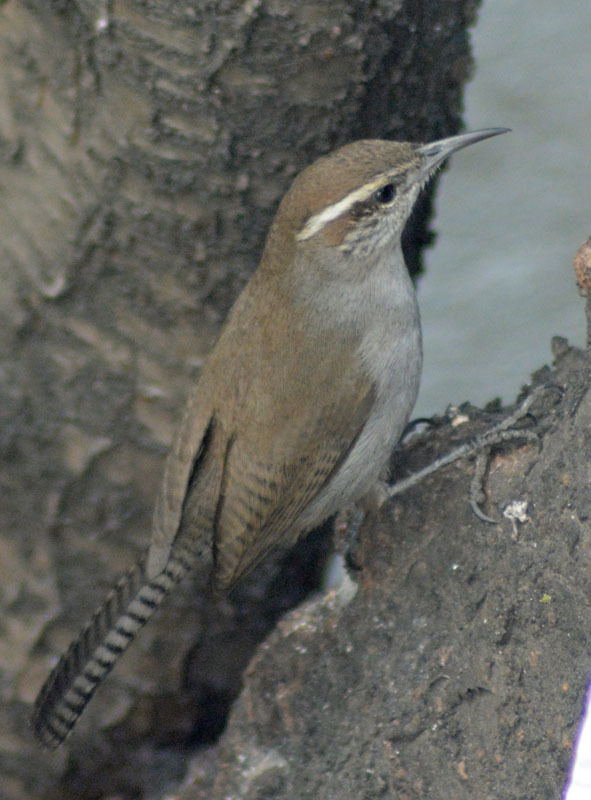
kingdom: Animalia
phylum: Chordata
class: Aves
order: Passeriformes
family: Troglodytidae
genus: Thryomanes
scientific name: Thryomanes bewickii
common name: Bewick's wren
